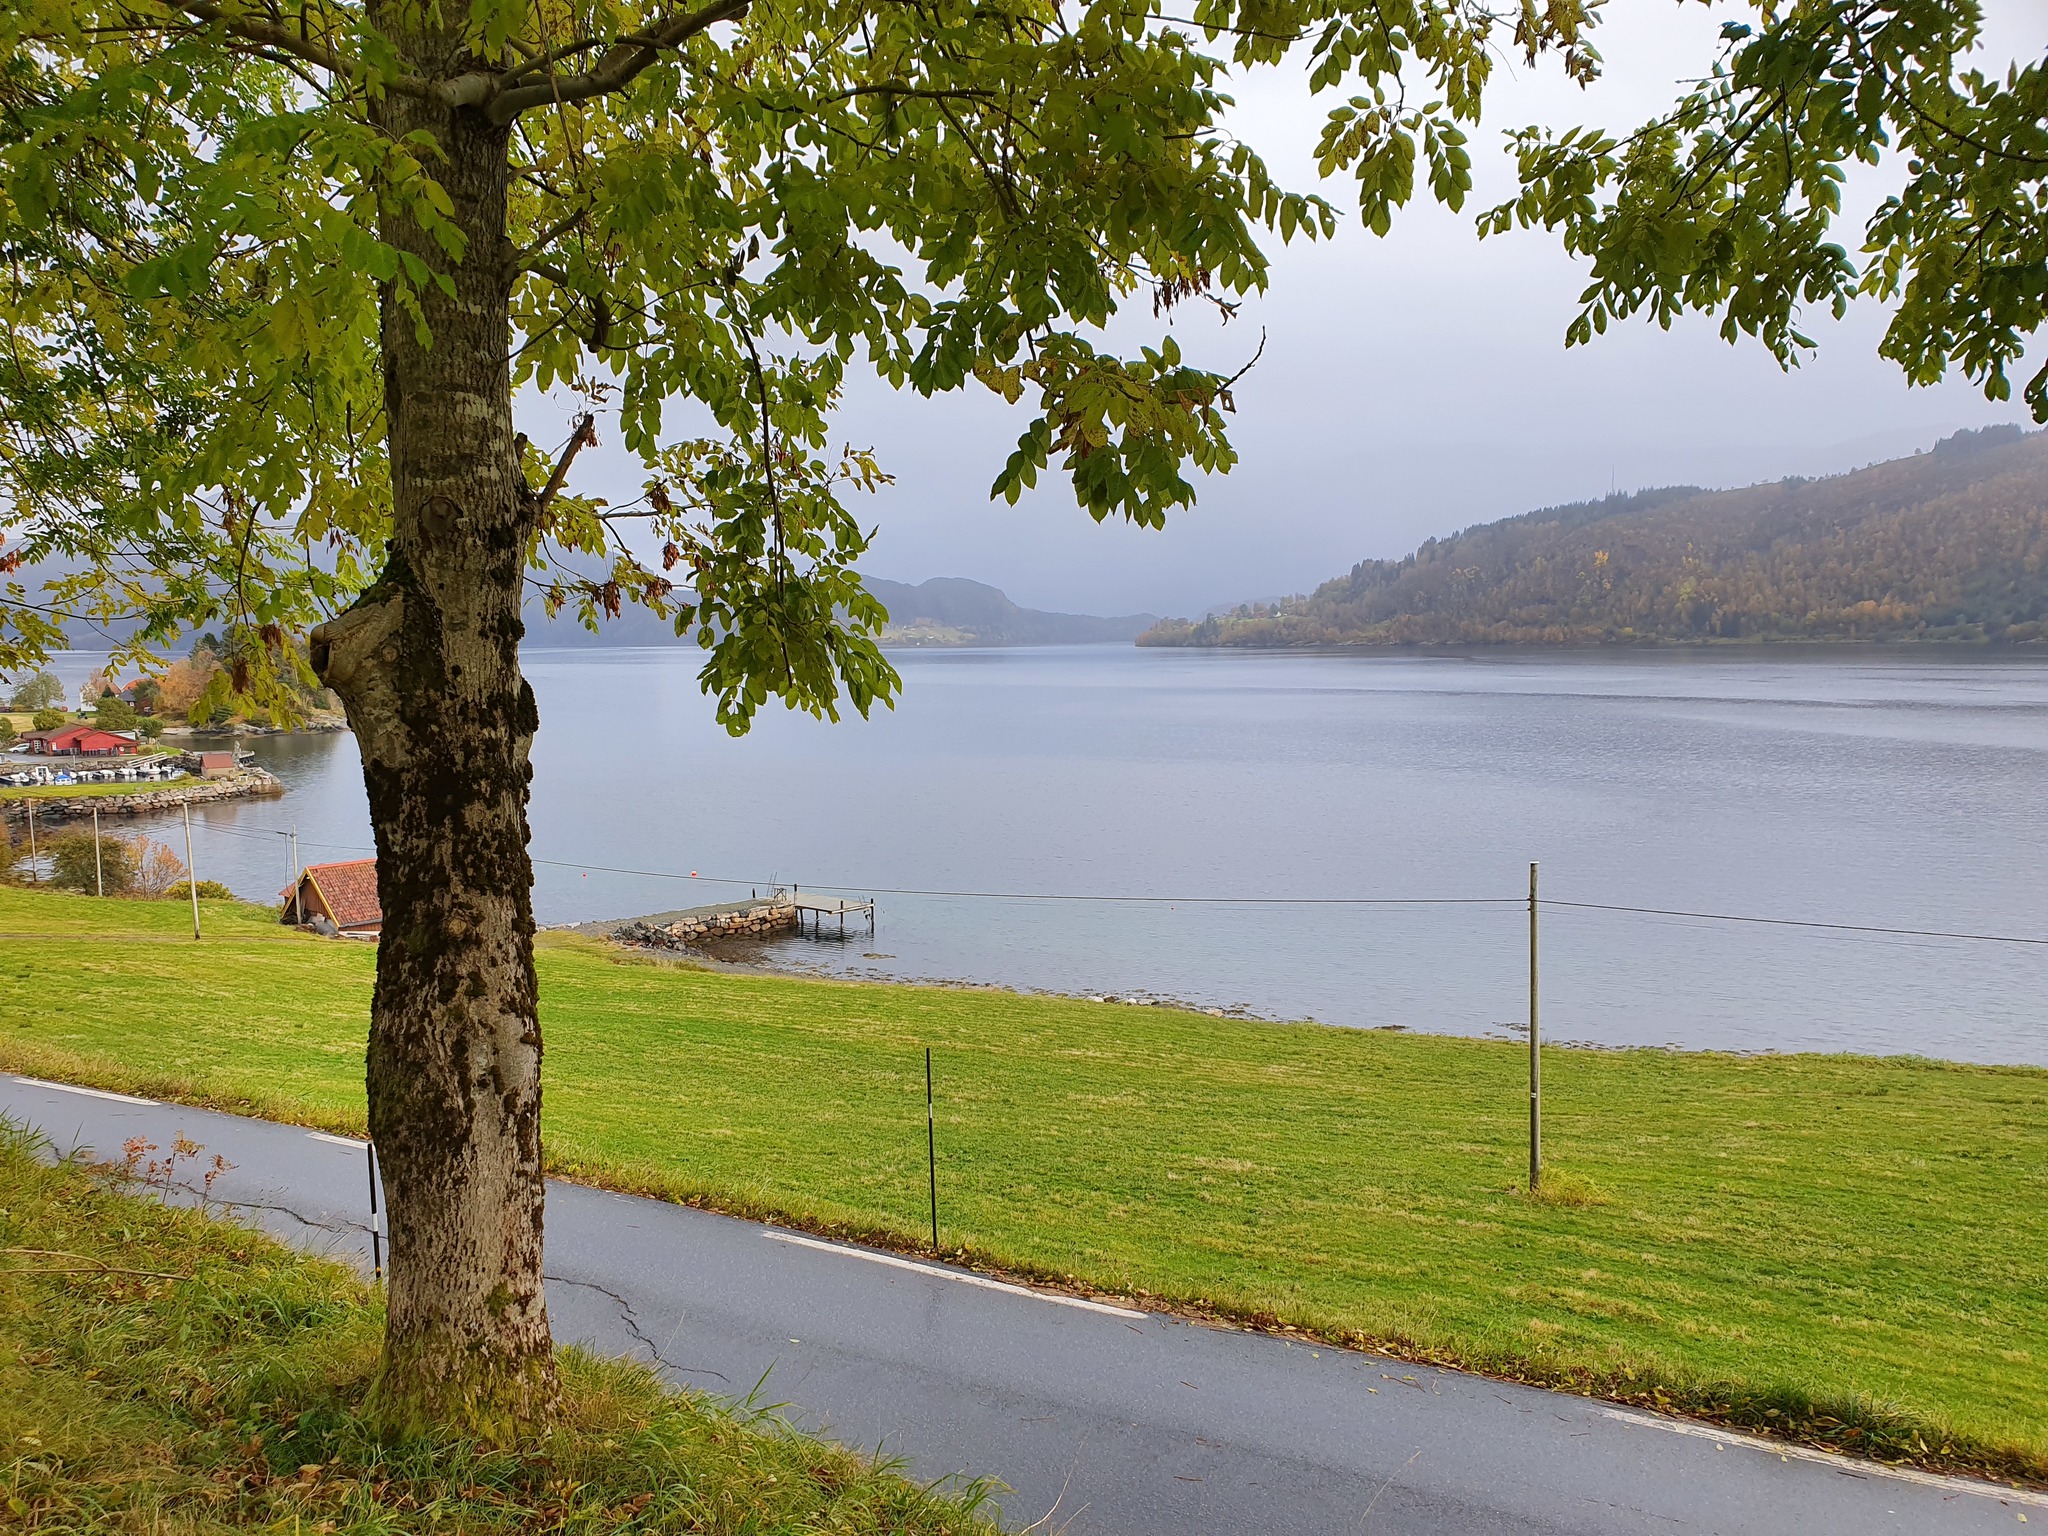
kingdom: Plantae
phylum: Tracheophyta
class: Magnoliopsida
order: Lamiales
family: Oleaceae
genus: Fraxinus
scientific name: Fraxinus excelsior
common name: European ash
